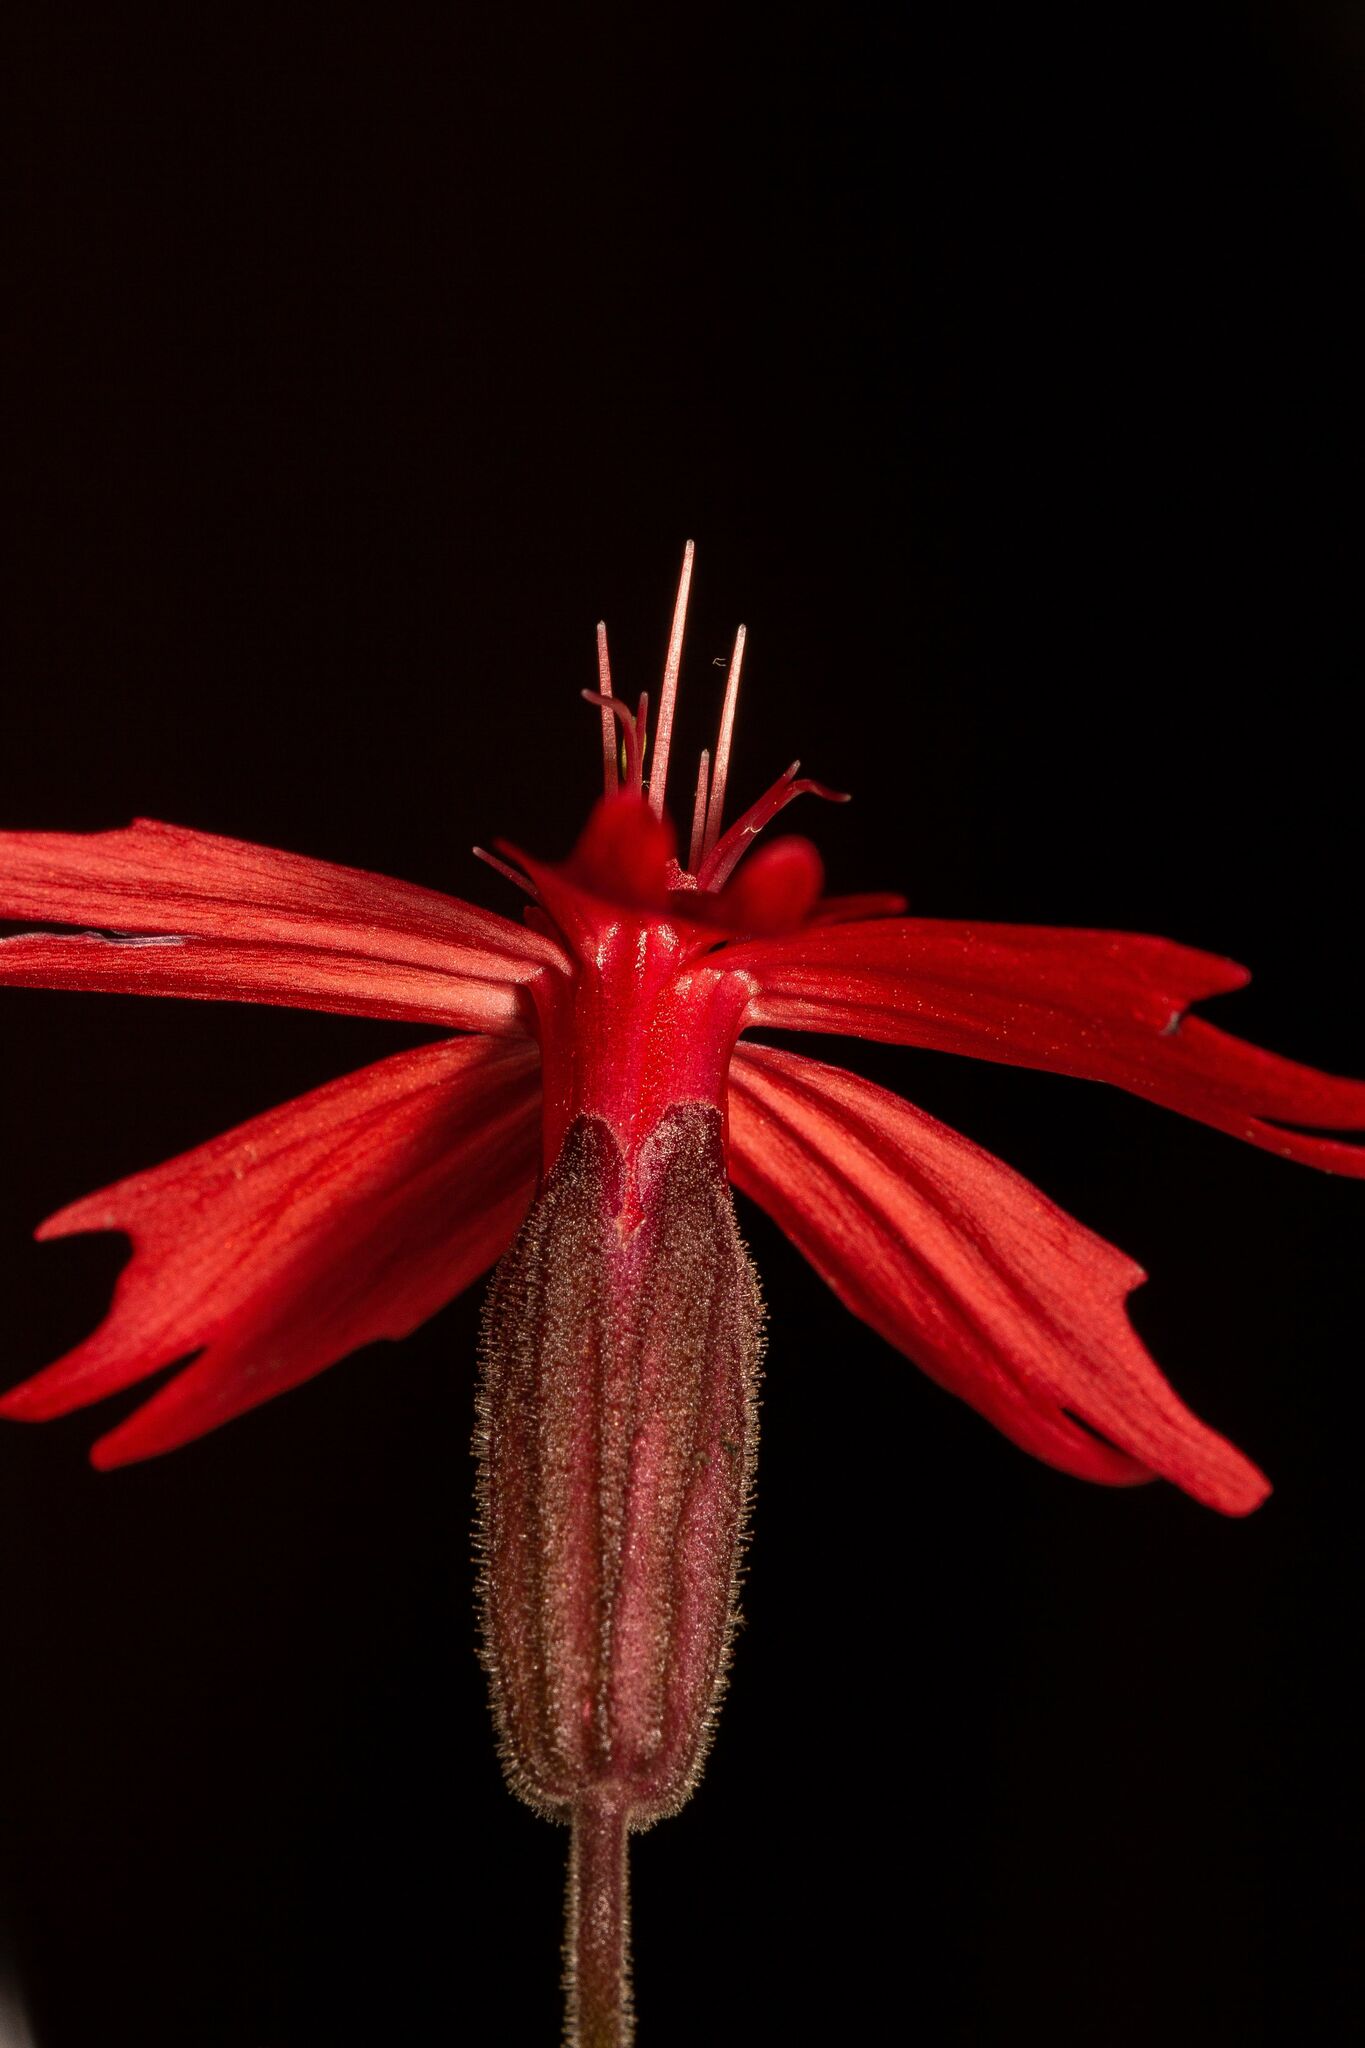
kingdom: Plantae
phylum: Tracheophyta
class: Magnoliopsida
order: Caryophyllales
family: Caryophyllaceae
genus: Silene
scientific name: Silene virginica
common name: Fire-pink
